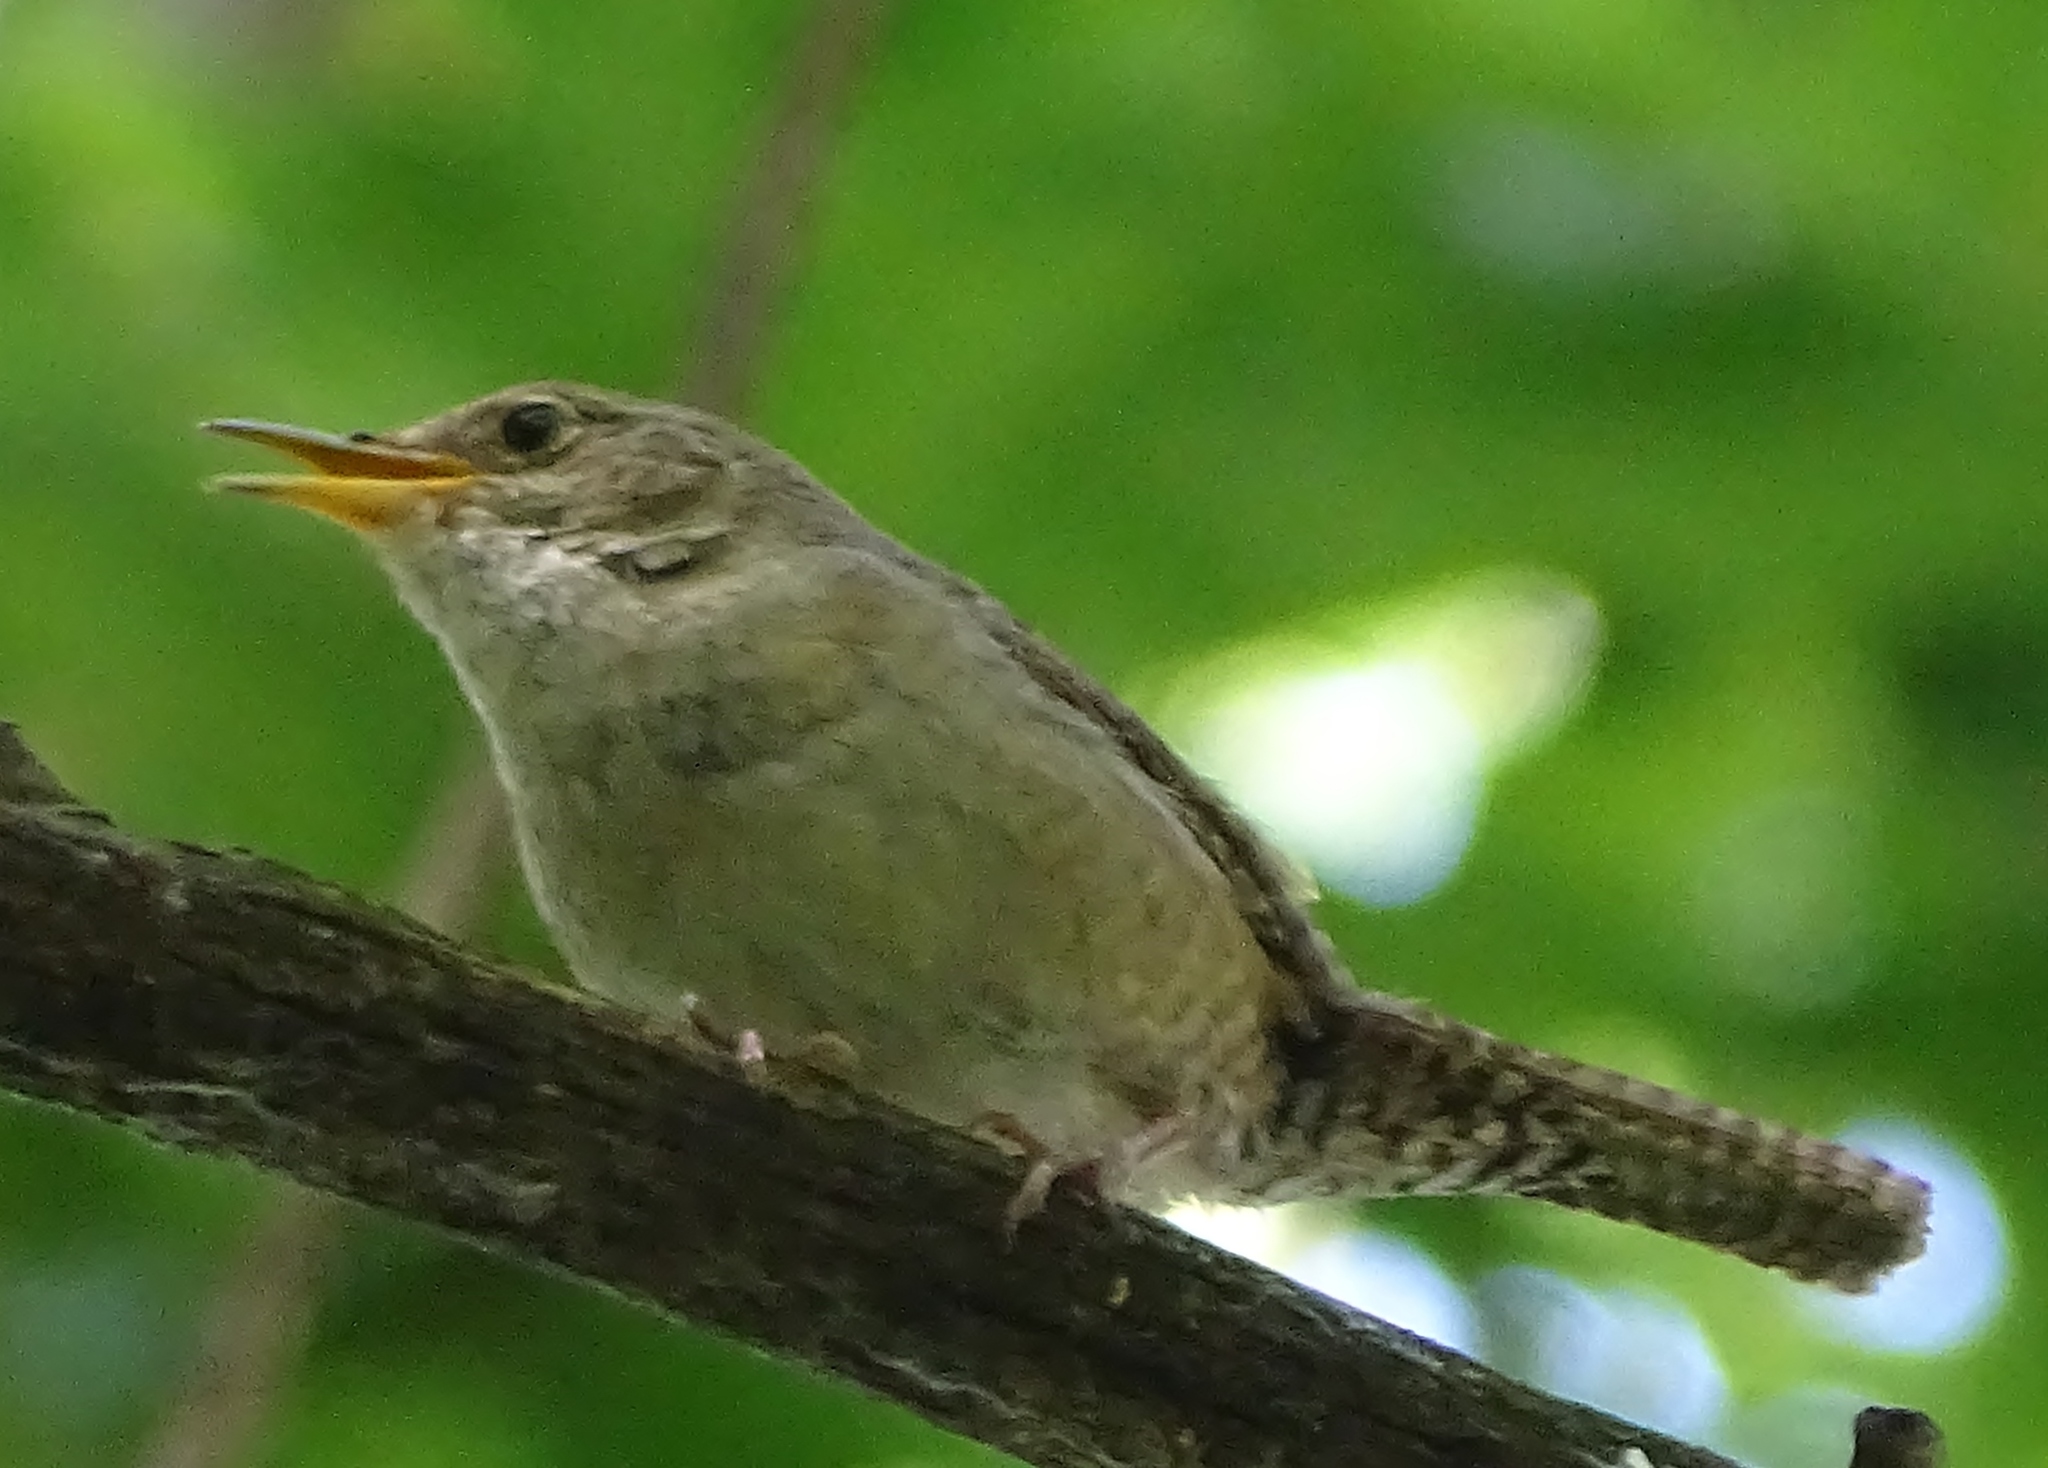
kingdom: Animalia
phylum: Chordata
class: Aves
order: Passeriformes
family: Troglodytidae
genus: Troglodytes
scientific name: Troglodytes aedon
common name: House wren
